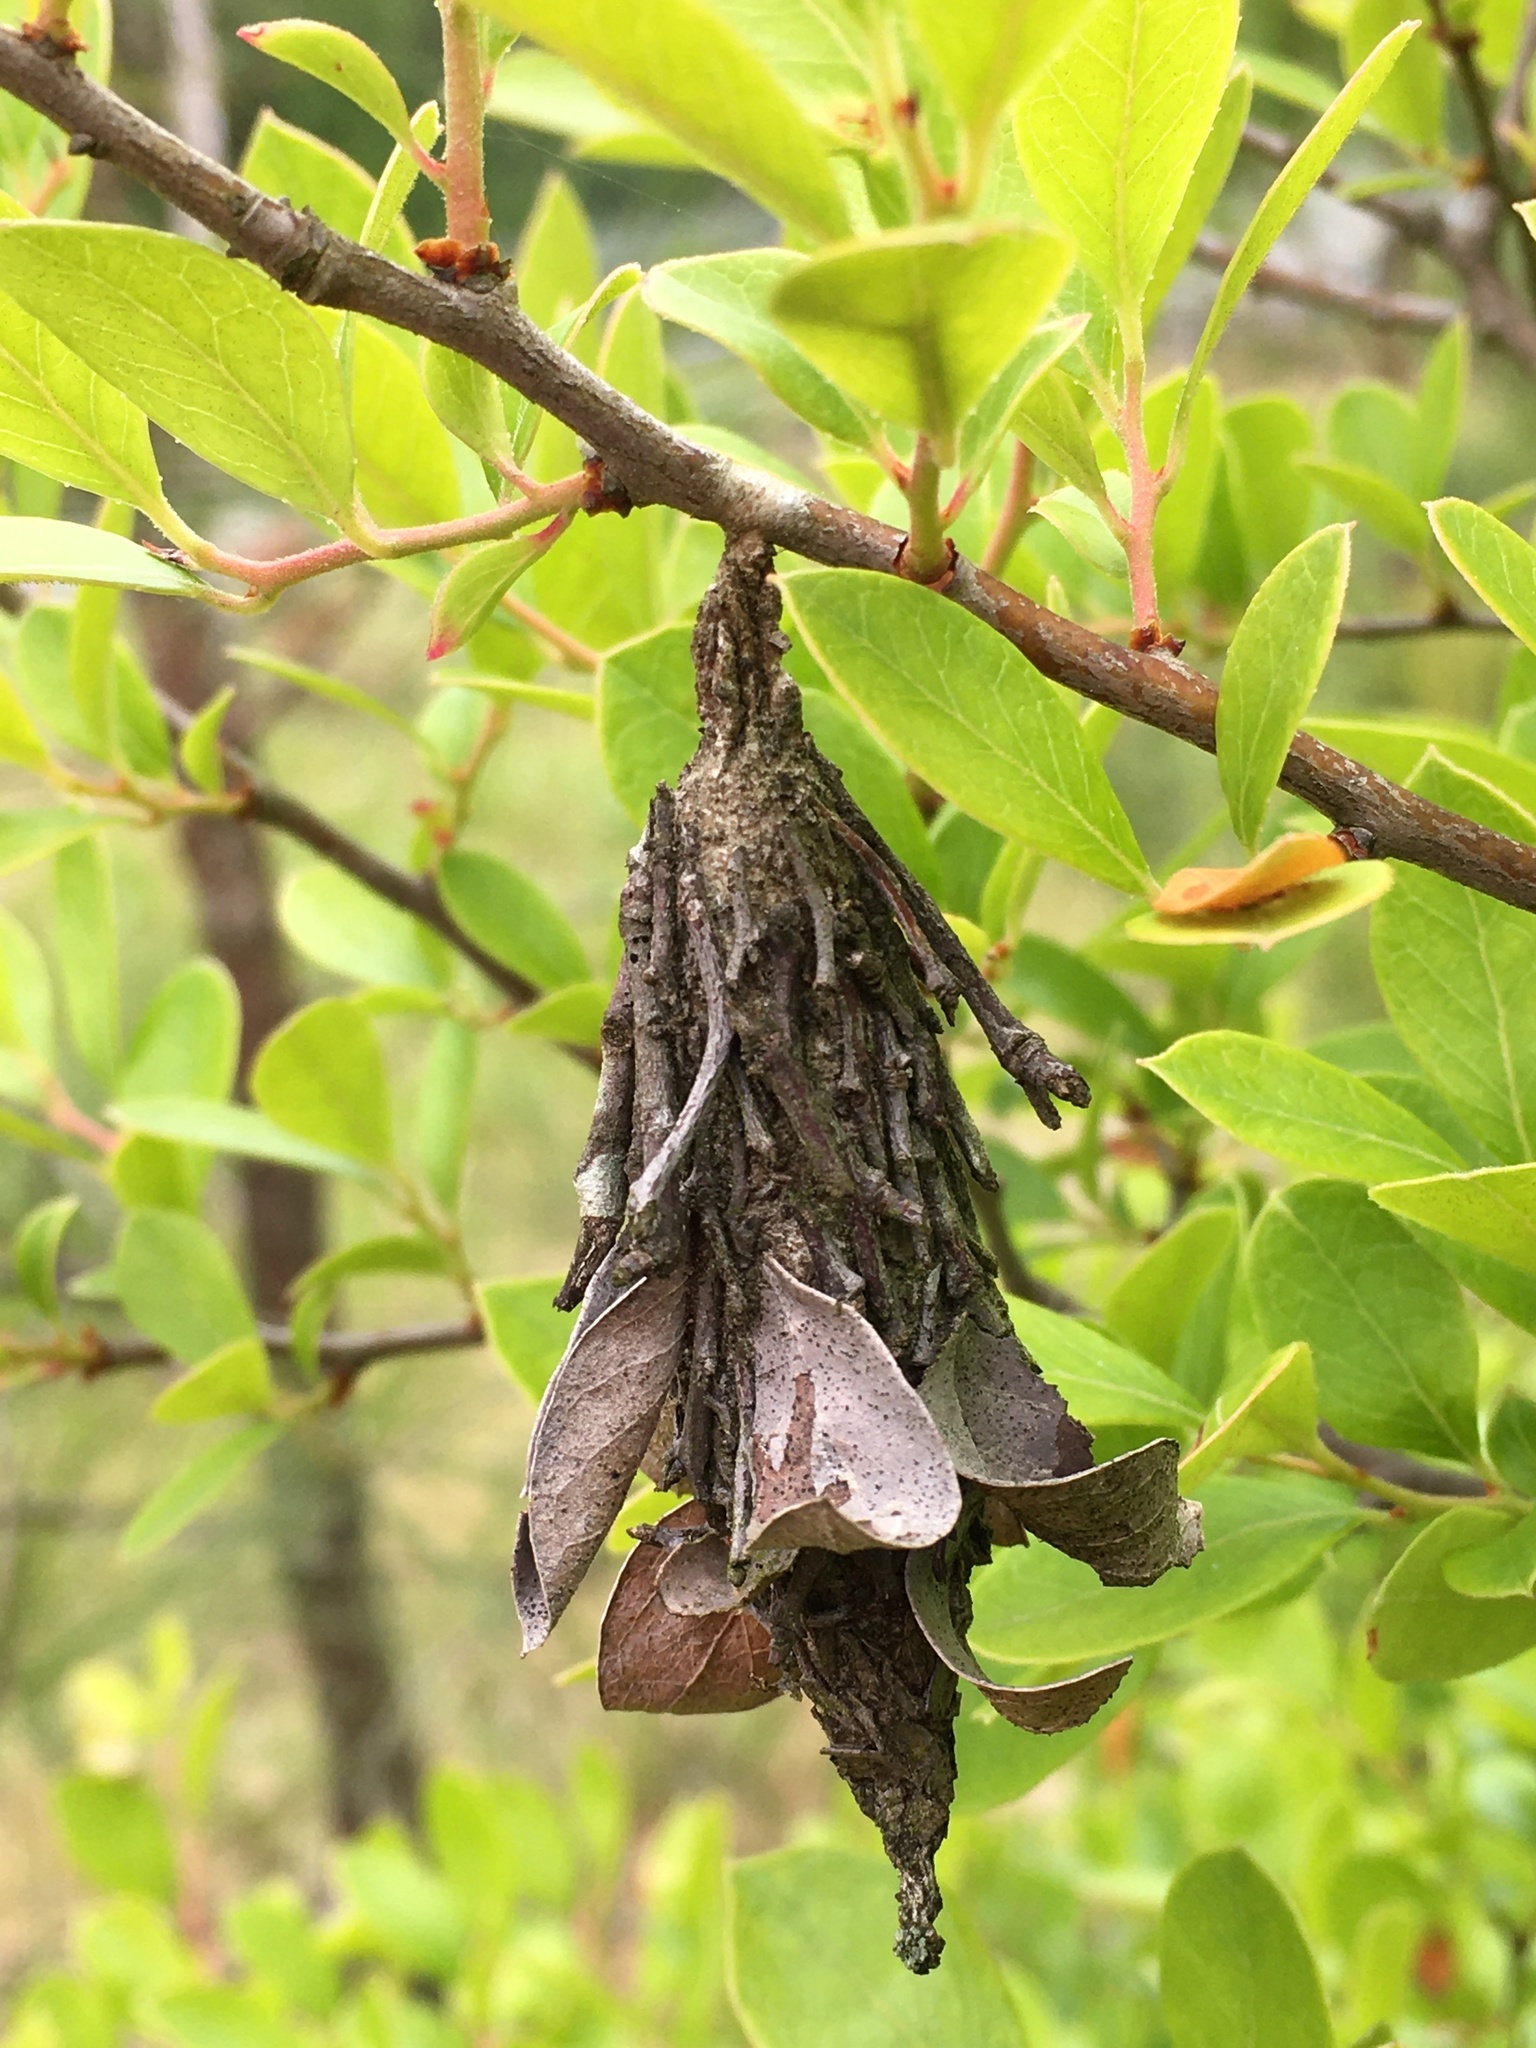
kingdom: Animalia
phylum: Arthropoda
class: Insecta
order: Lepidoptera
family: Psychidae
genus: Thyridopteryx
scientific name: Thyridopteryx ephemeraeformis
